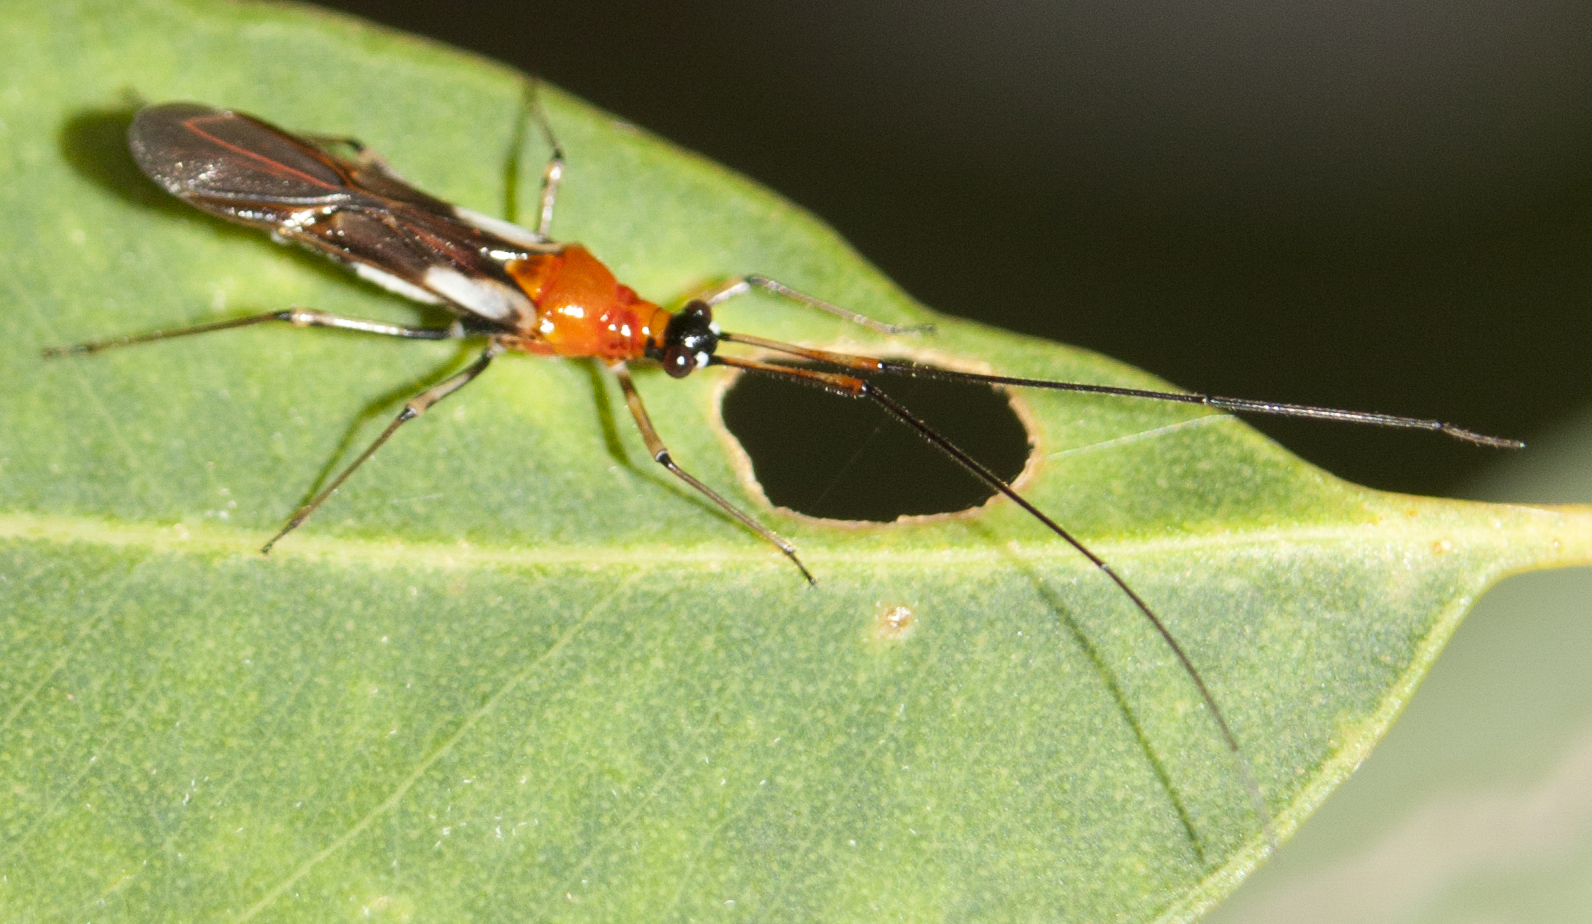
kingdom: Animalia
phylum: Arthropoda
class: Insecta
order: Hemiptera
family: Miridae
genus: Rayieria
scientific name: Rayieria basifer
